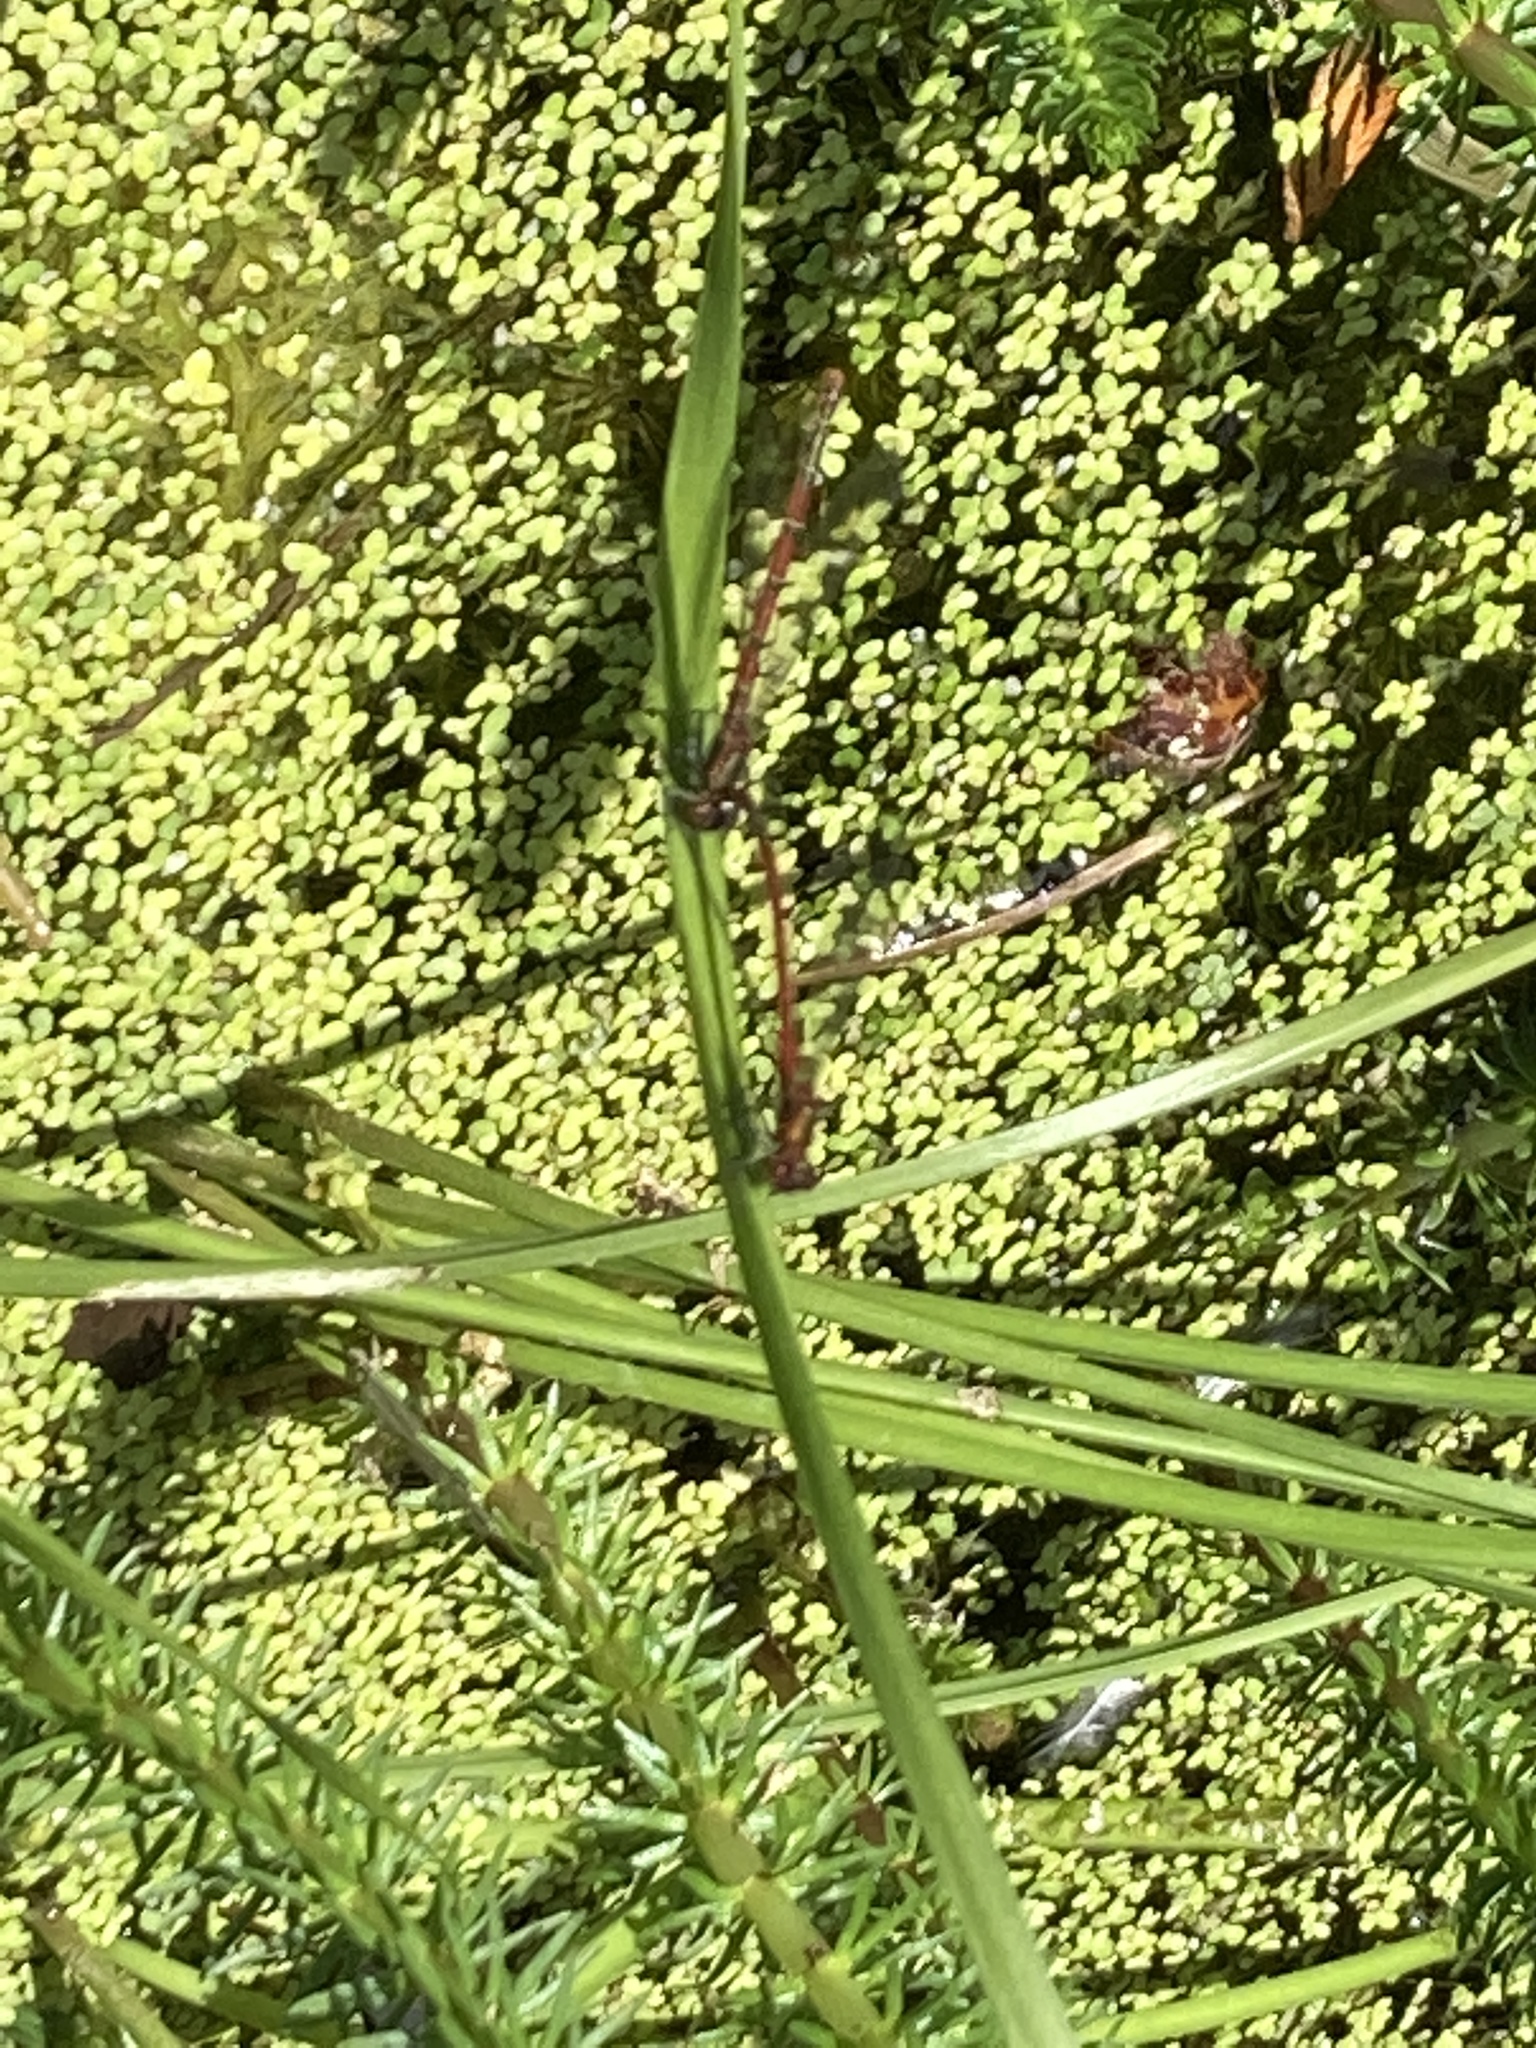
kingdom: Animalia
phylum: Arthropoda
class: Insecta
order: Odonata
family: Coenagrionidae
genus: Pyrrhosoma
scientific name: Pyrrhosoma nymphula
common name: Large red damsel
